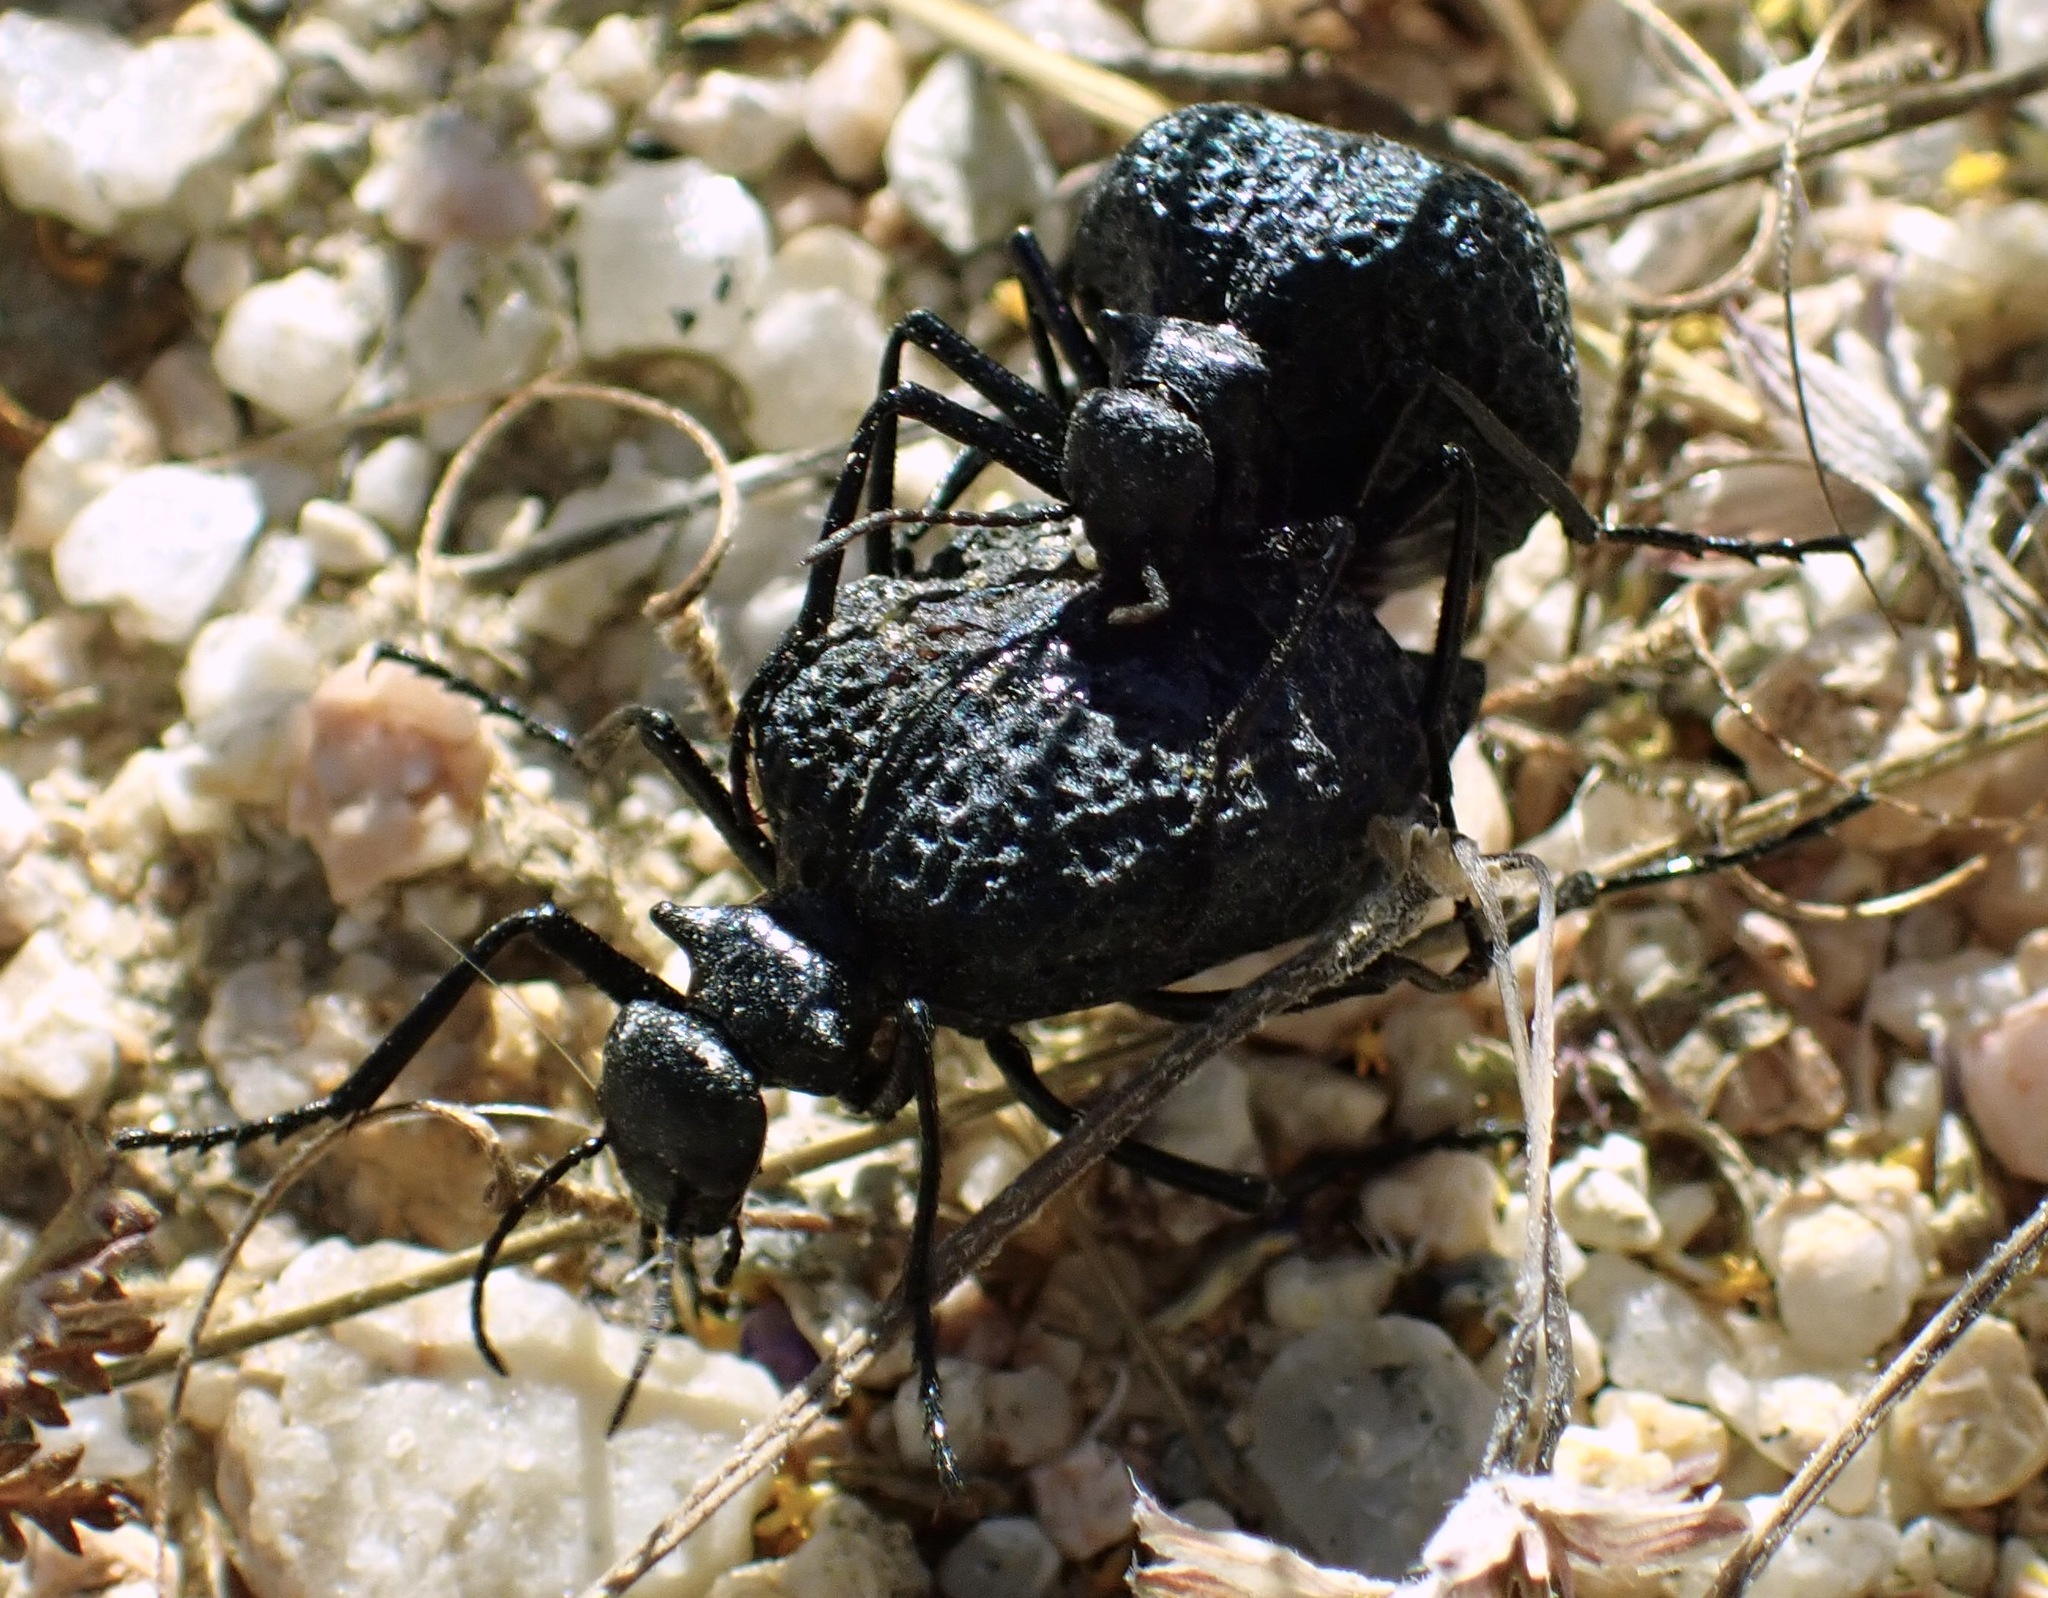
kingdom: Animalia
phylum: Arthropoda
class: Insecta
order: Coleoptera
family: Meloidae
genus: Cysteodemus
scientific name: Cysteodemus armatus
